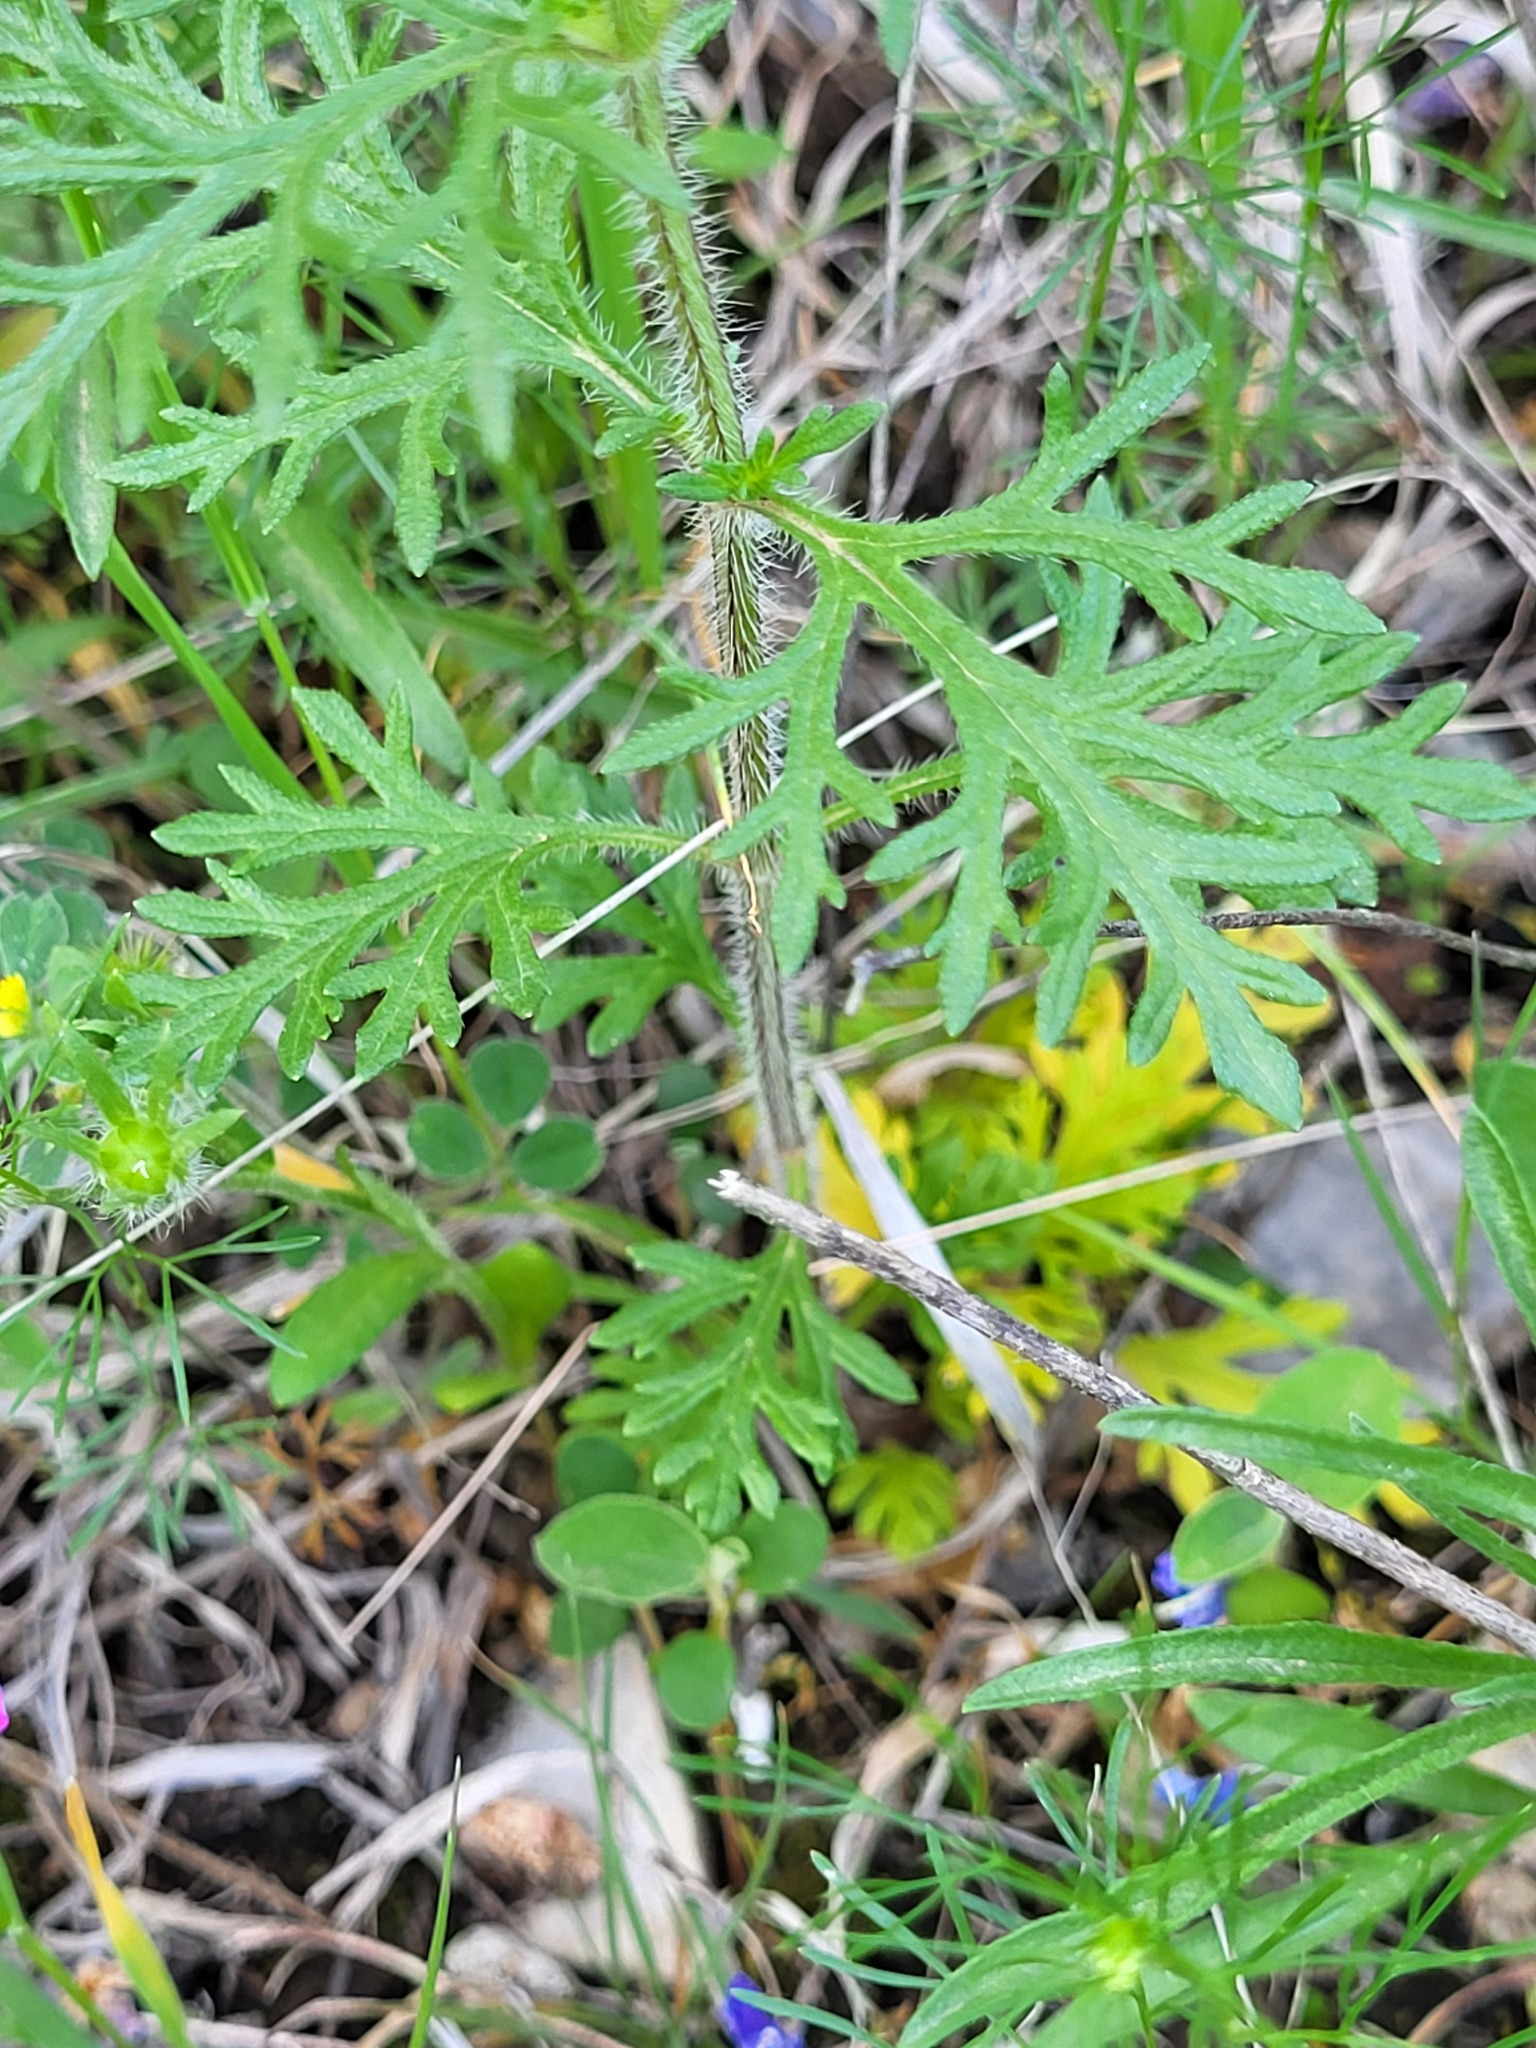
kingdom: Plantae
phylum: Tracheophyta
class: Magnoliopsida
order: Lamiales
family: Verbenaceae
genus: Verbena
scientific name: Verbena bipinnatifida
